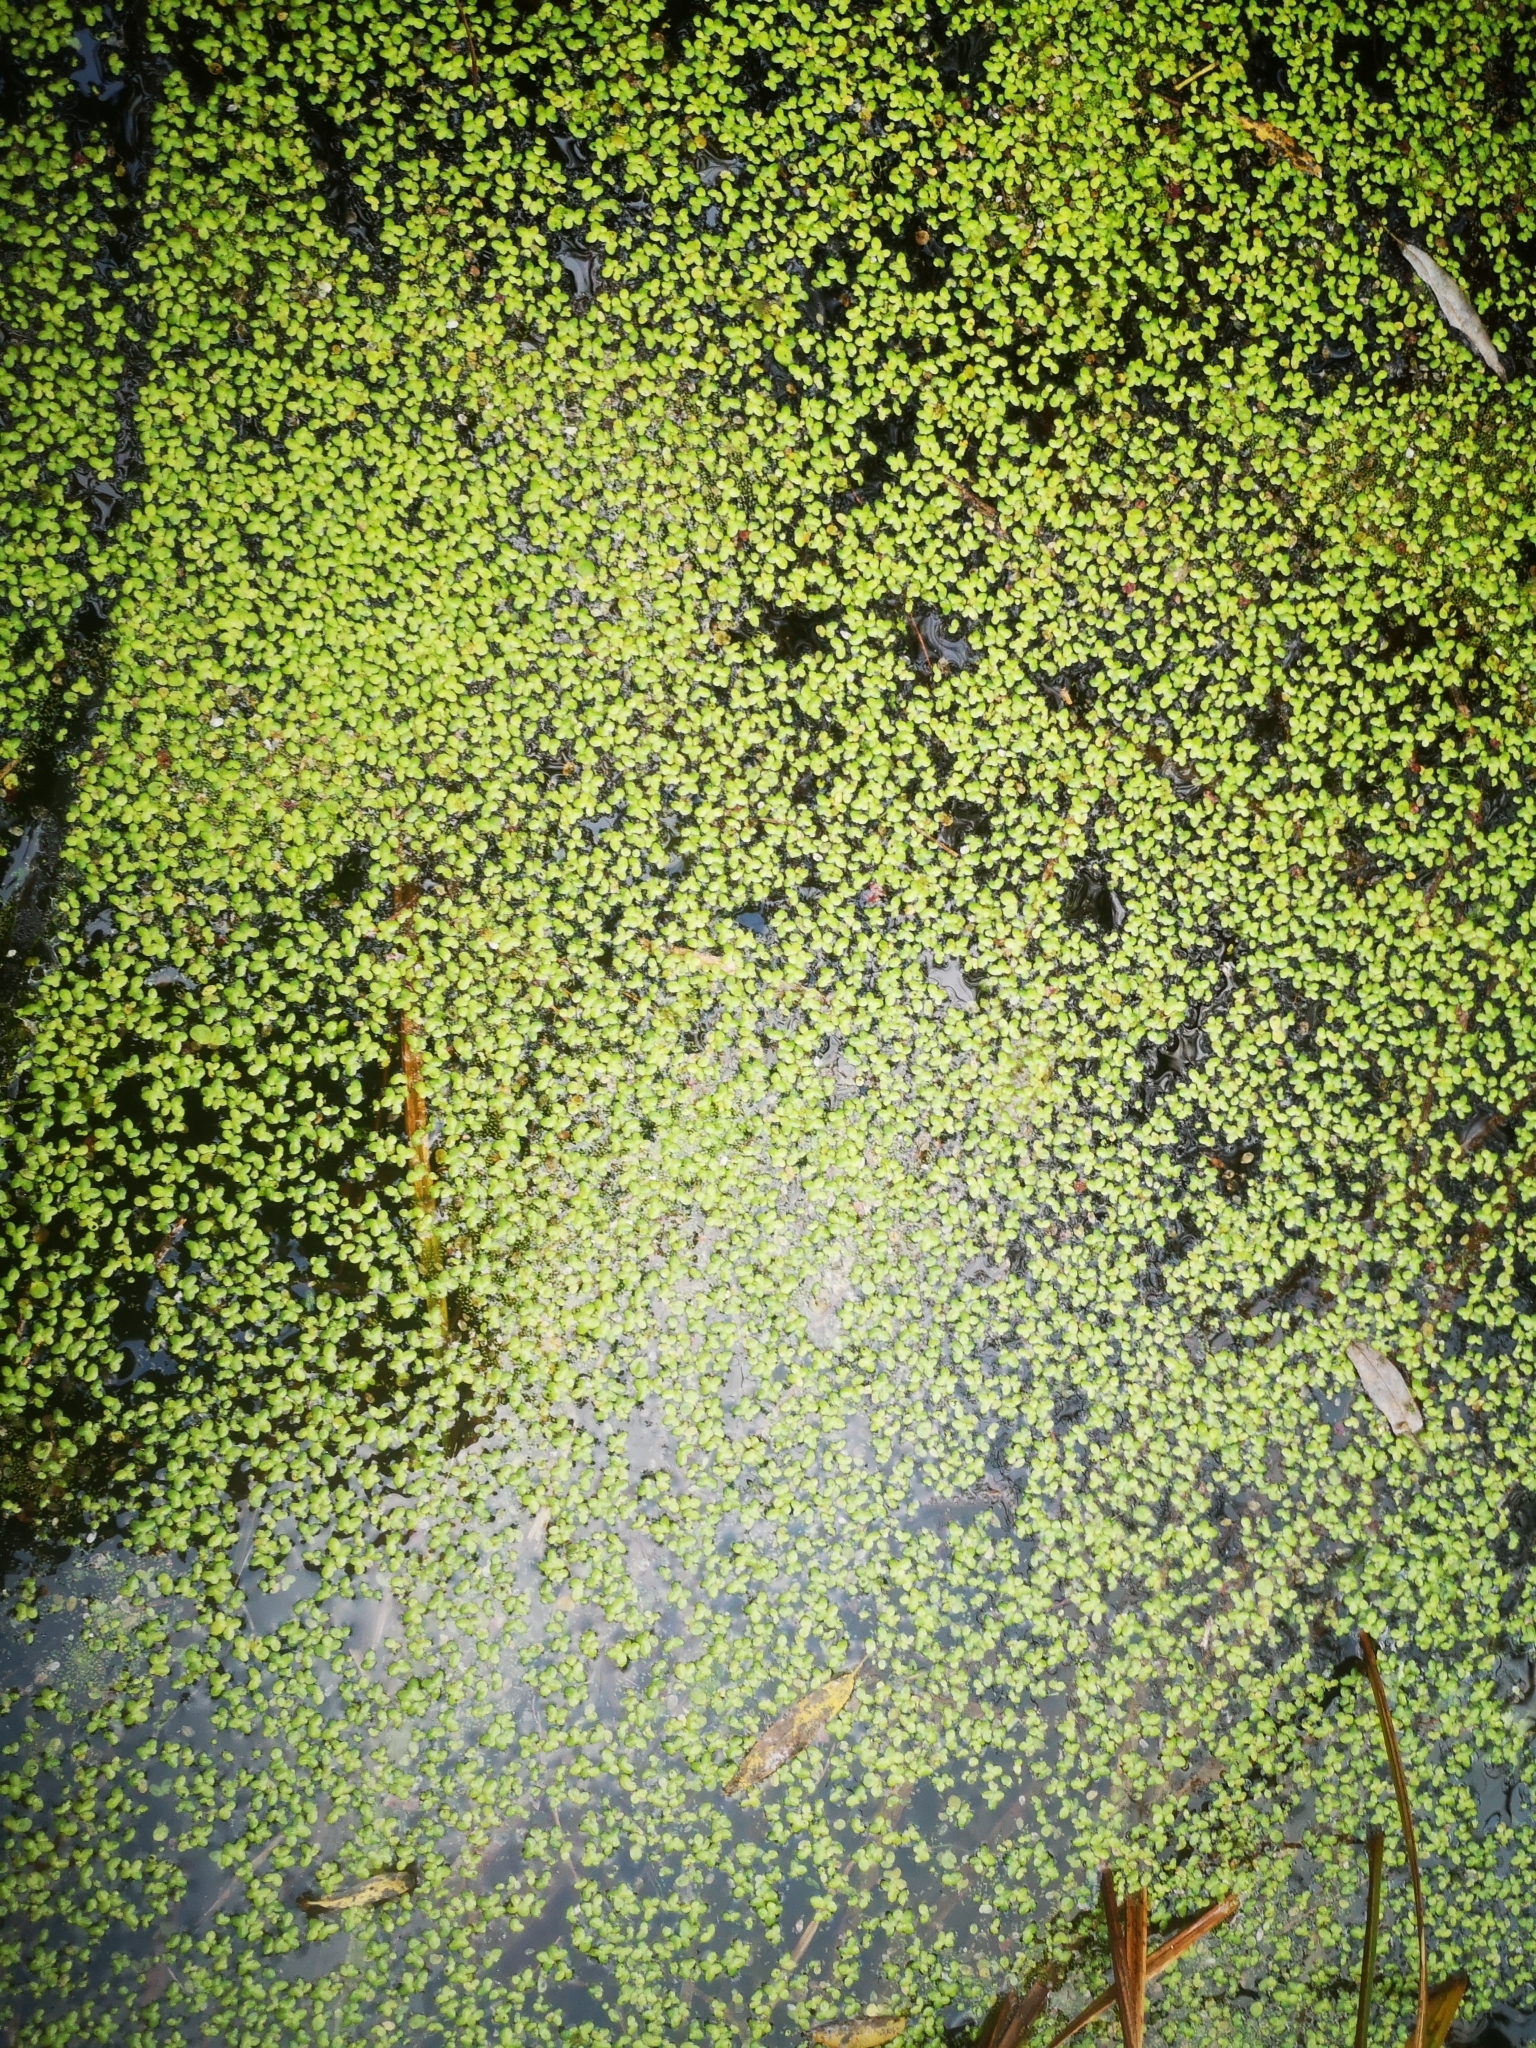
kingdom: Plantae
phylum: Tracheophyta
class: Liliopsida
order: Alismatales
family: Araceae
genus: Lemna
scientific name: Lemna minor
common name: Common duckweed
